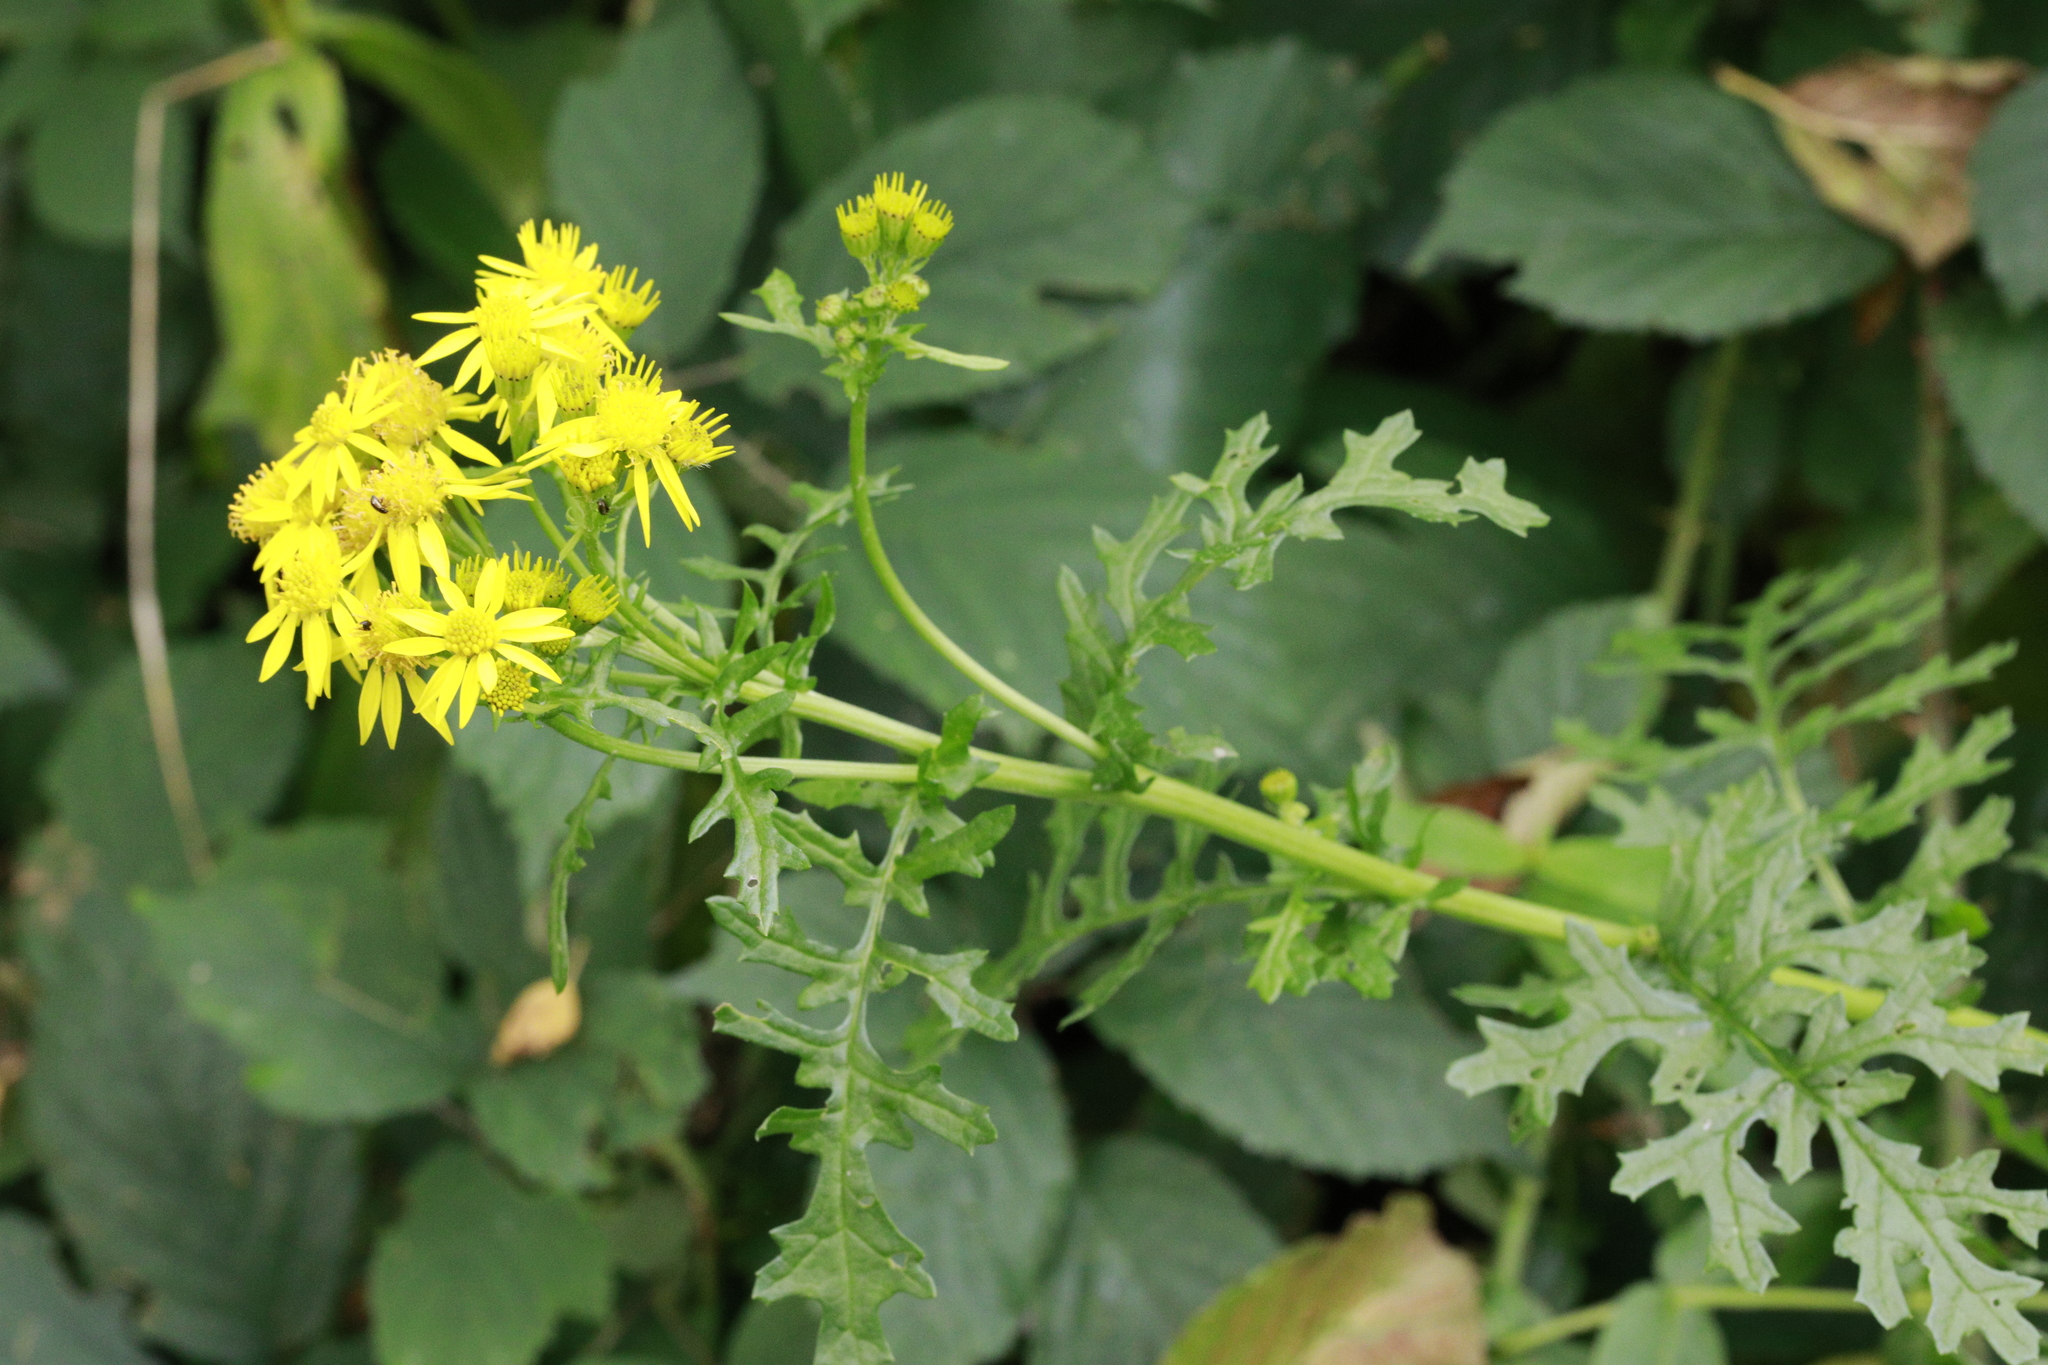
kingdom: Plantae
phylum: Tracheophyta
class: Magnoliopsida
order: Asterales
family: Asteraceae
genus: Jacobaea
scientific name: Jacobaea vulgaris
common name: Stinking willie
